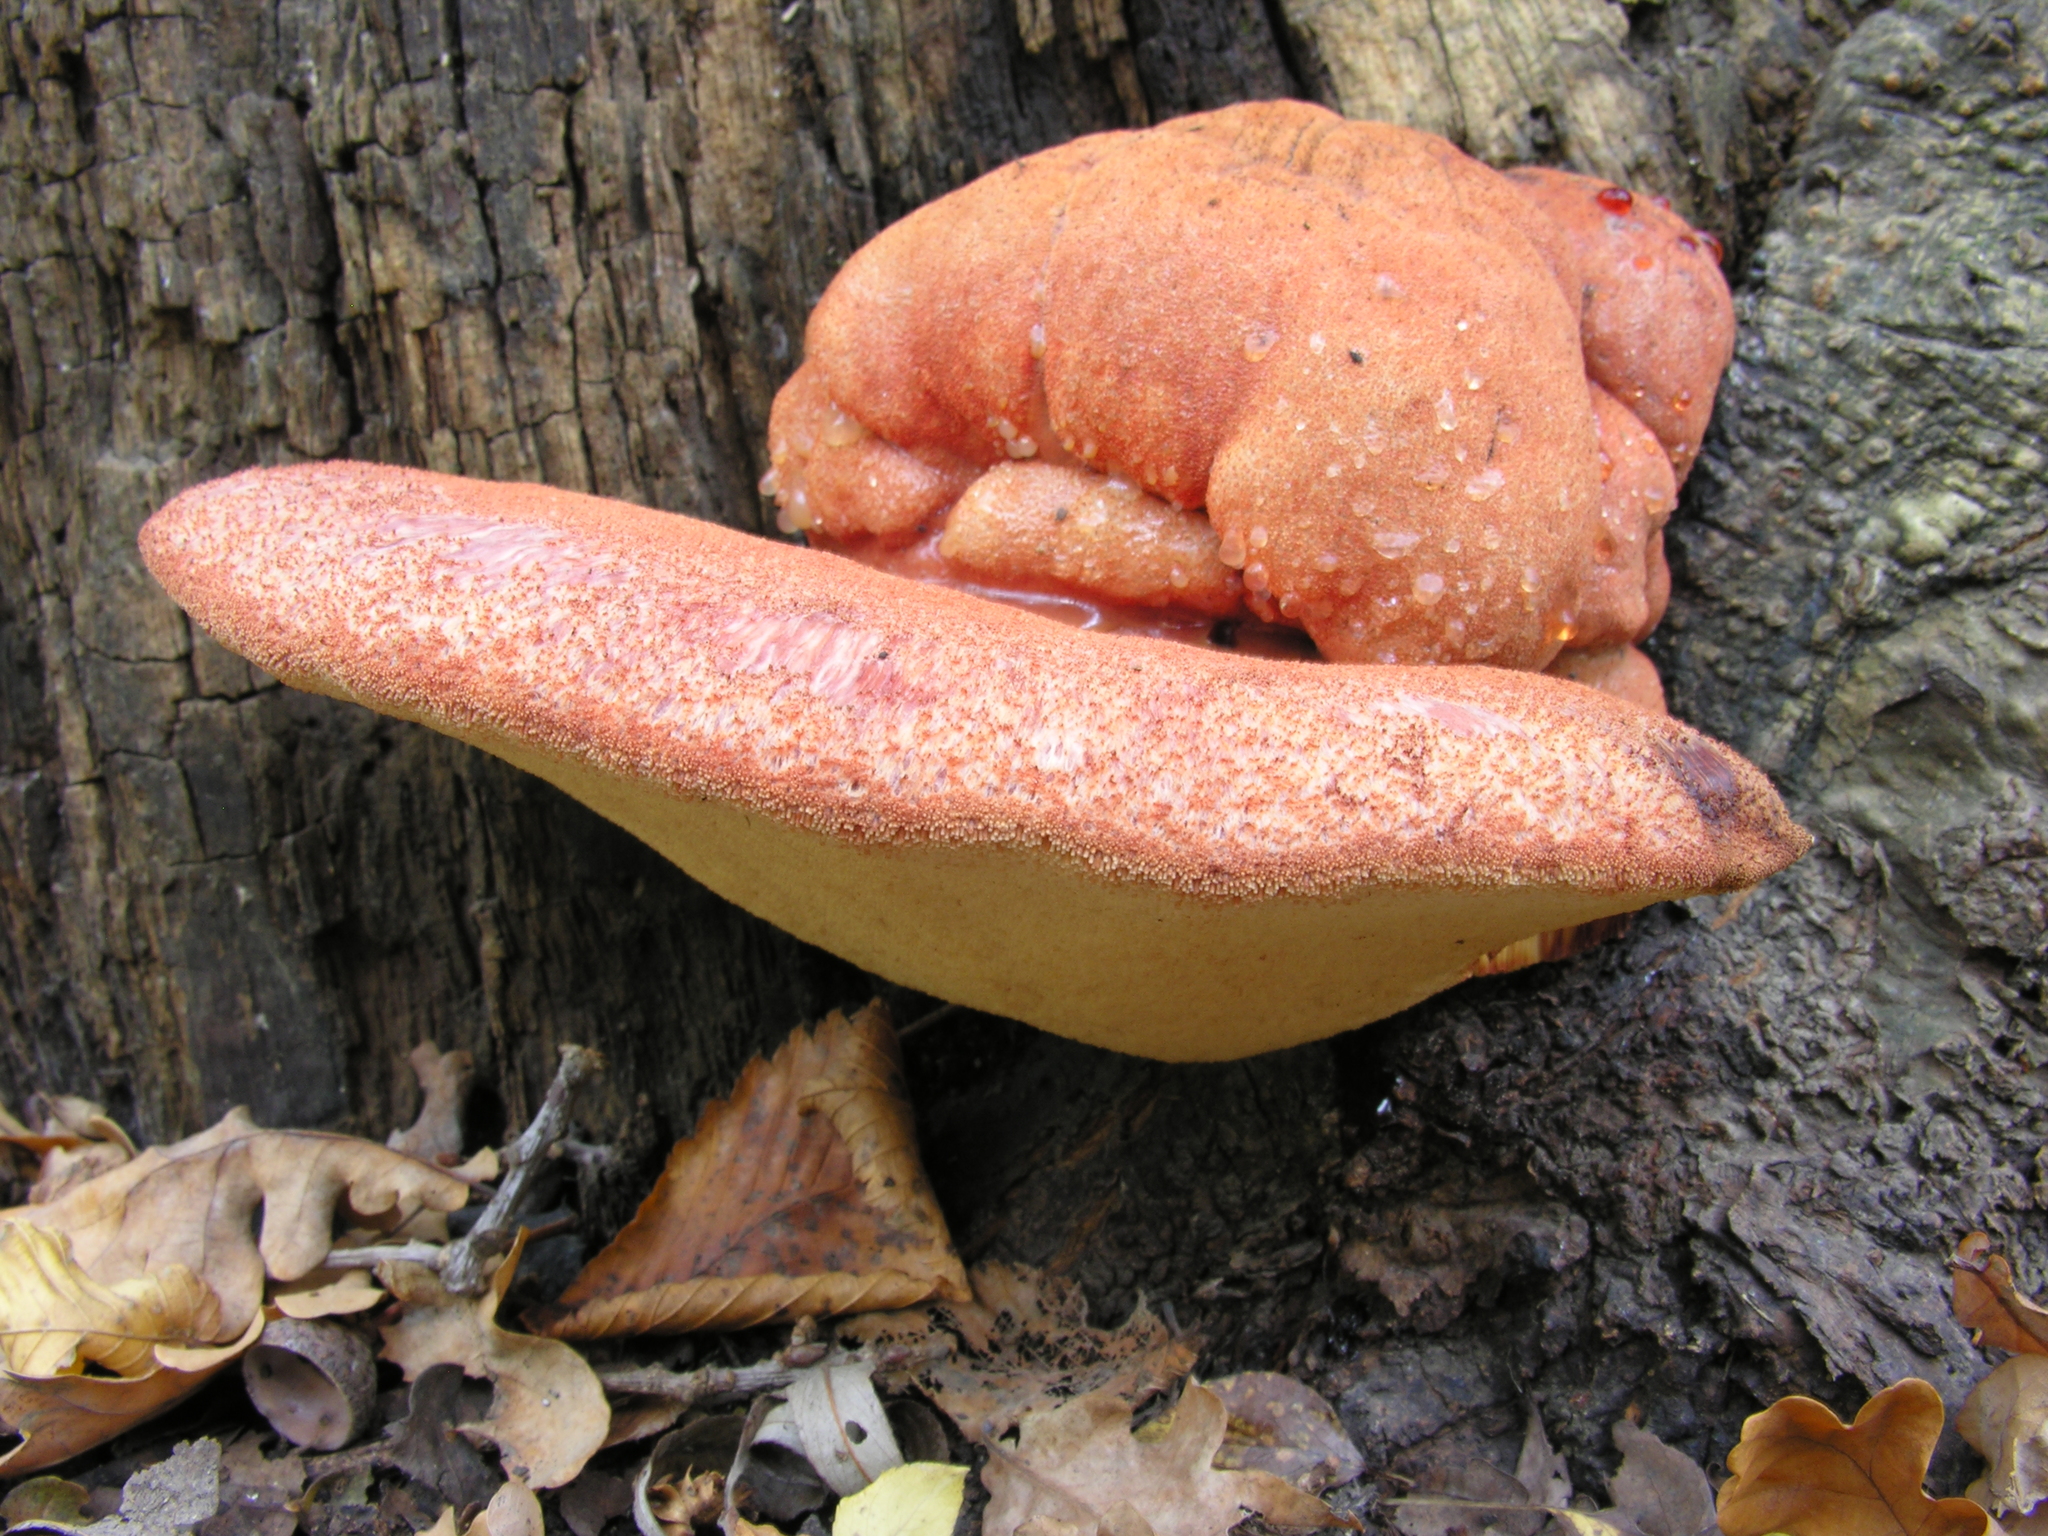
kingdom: Fungi
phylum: Basidiomycota
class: Agaricomycetes
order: Agaricales
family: Fistulinaceae
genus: Fistulina
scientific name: Fistulina hepatica
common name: Beef-steak fungus
